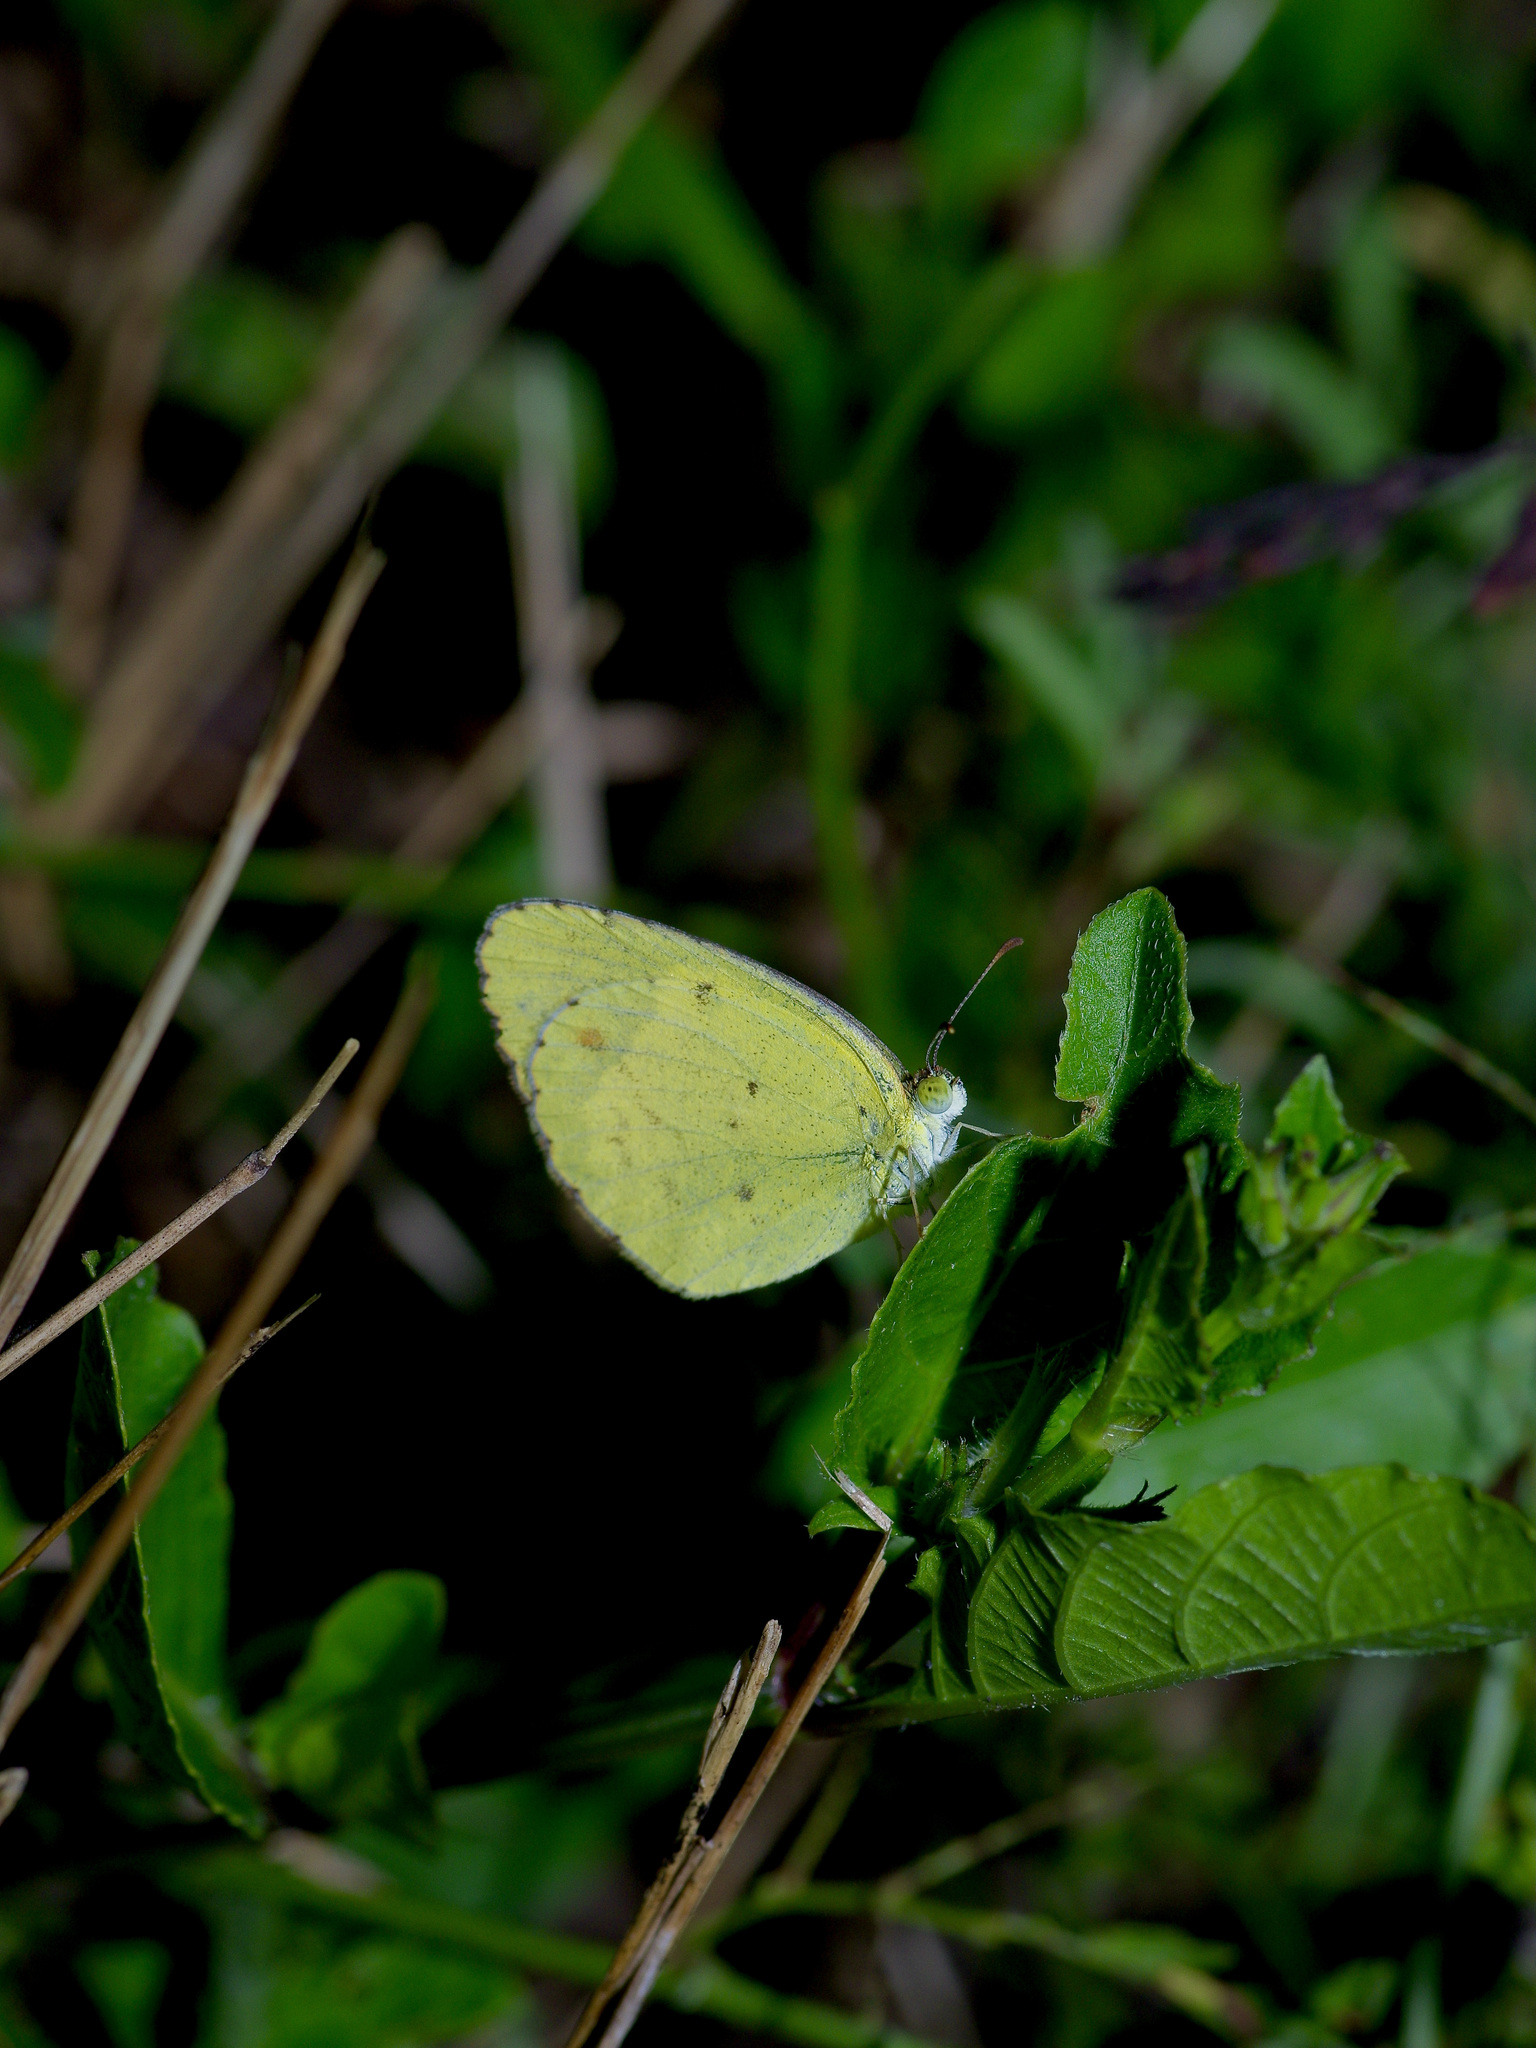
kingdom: Animalia
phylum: Arthropoda
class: Insecta
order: Lepidoptera
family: Pieridae
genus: Pyrisitia
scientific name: Pyrisitia lisa
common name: Little yellow
